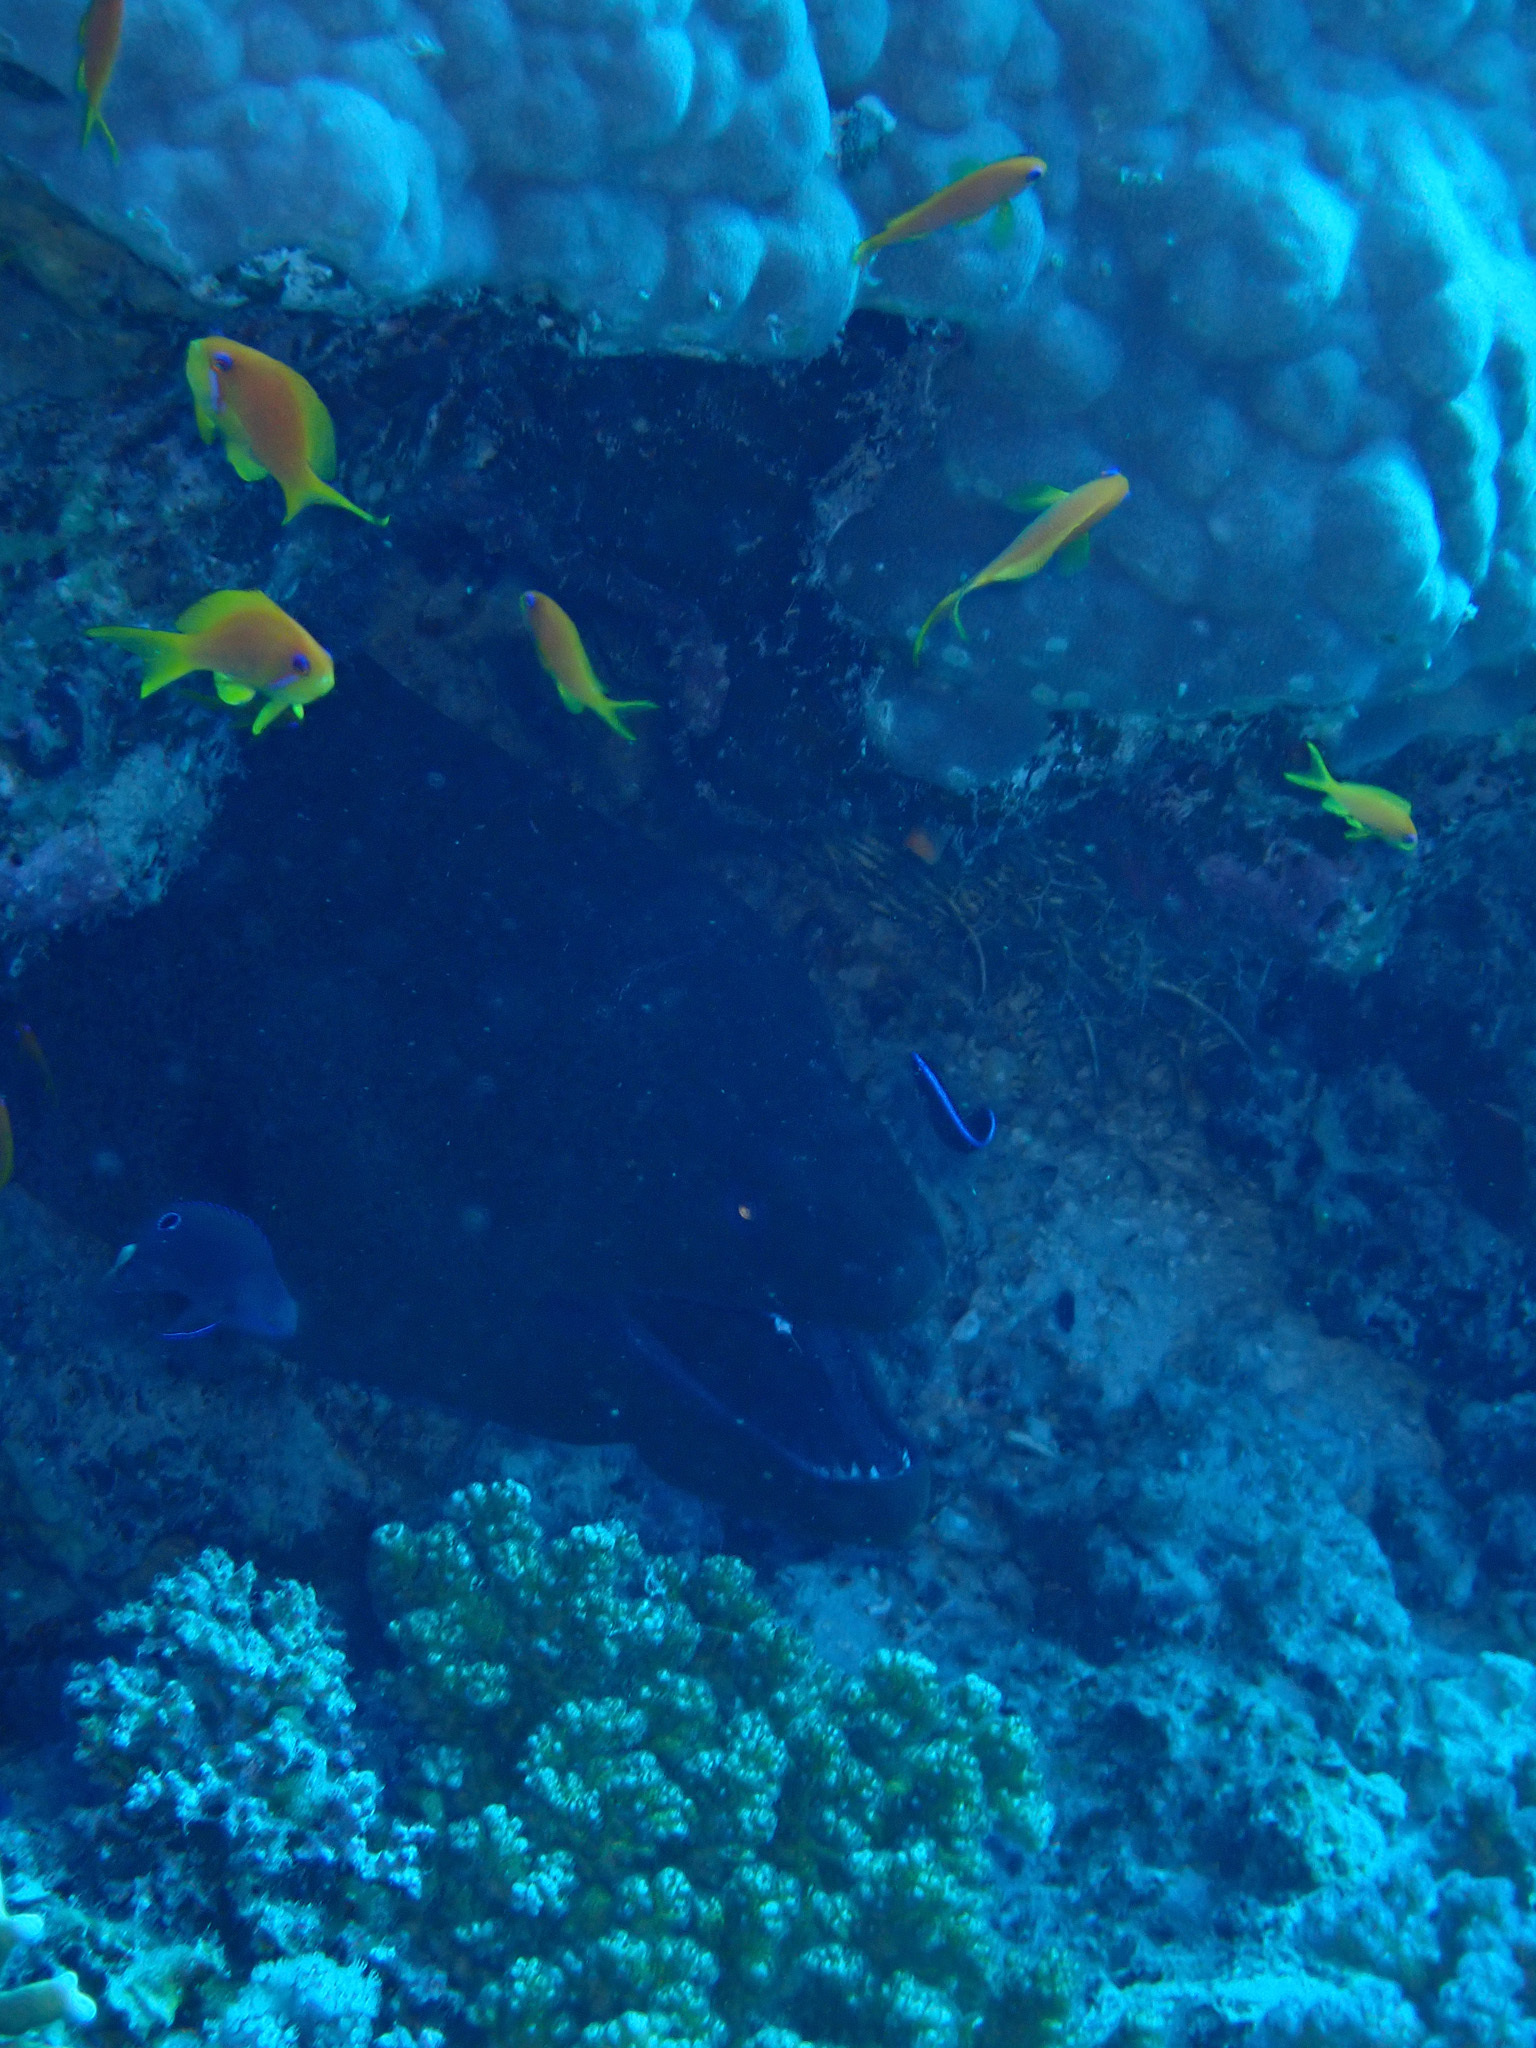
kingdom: Animalia
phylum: Chordata
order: Anguilliformes
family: Muraenidae
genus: Gymnothorax
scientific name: Gymnothorax javanicus
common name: Giant moray
